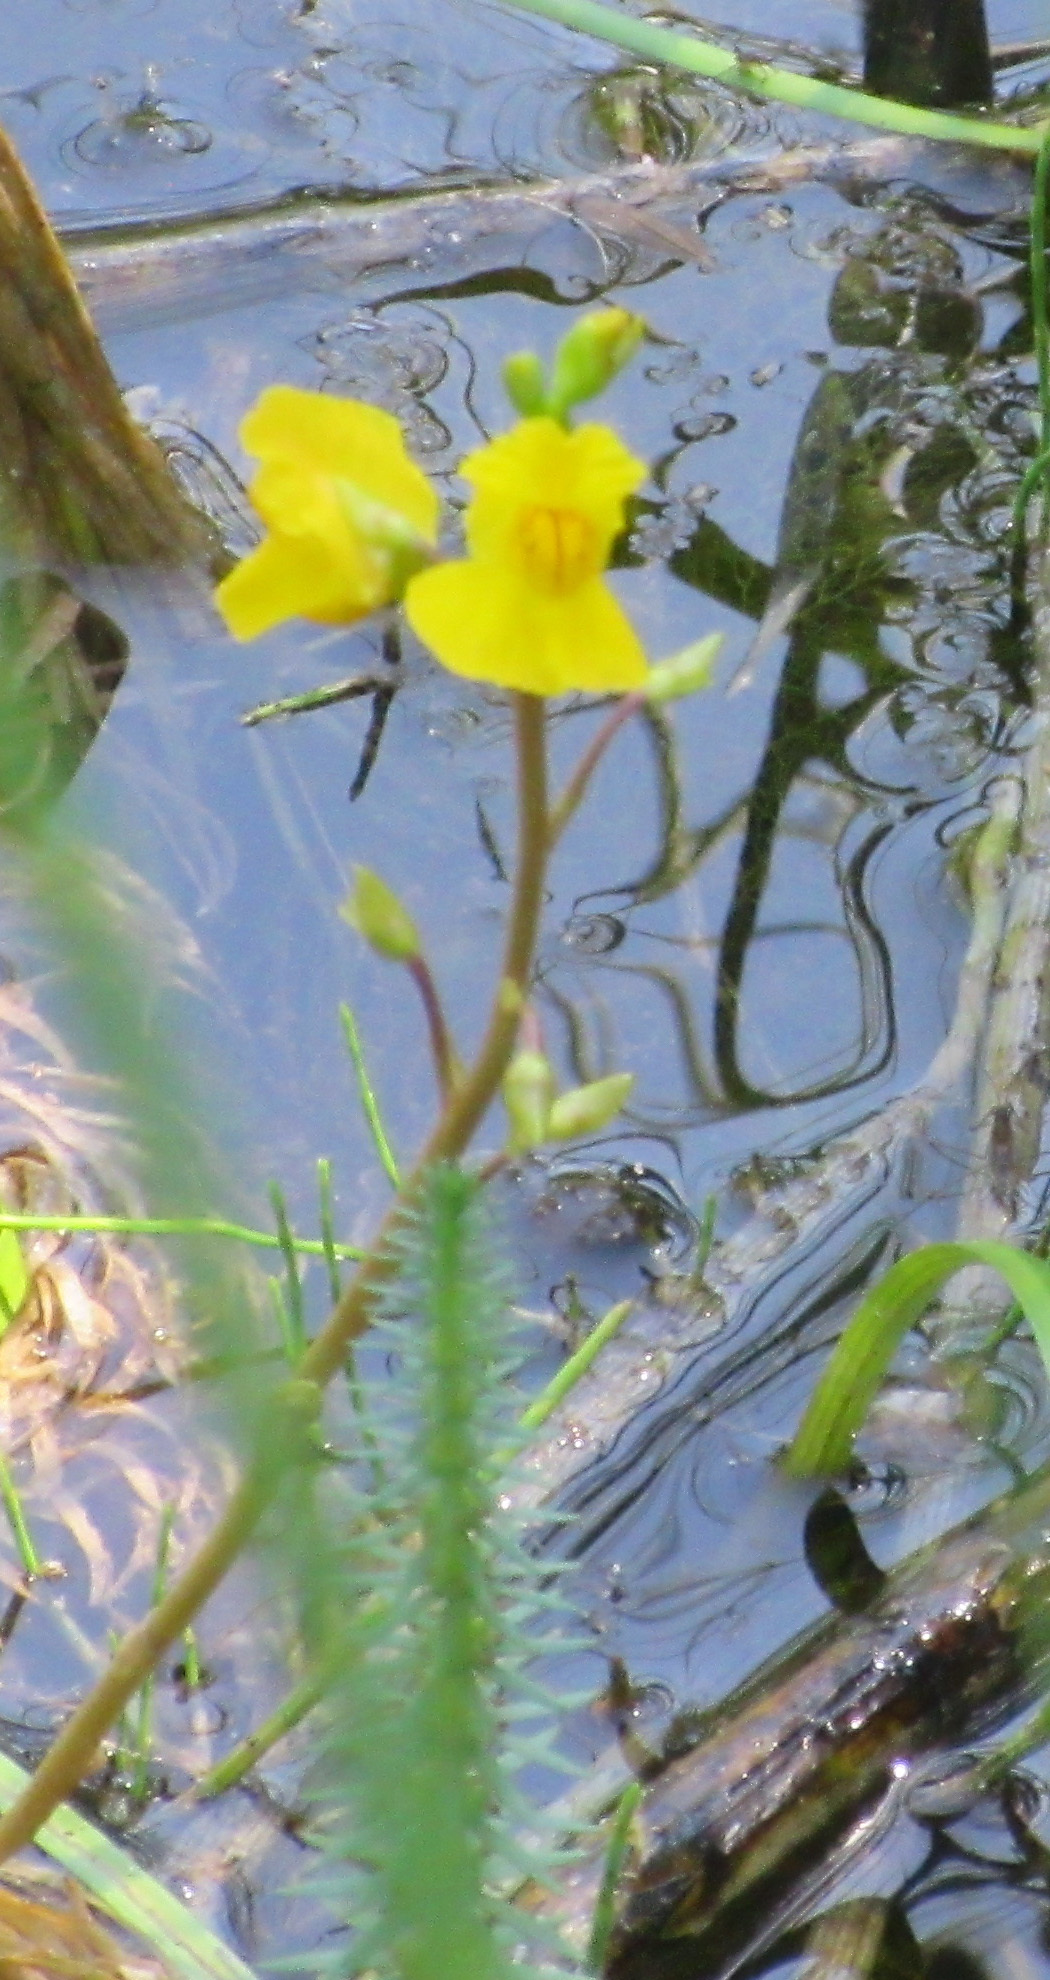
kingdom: Plantae
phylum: Tracheophyta
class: Magnoliopsida
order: Lamiales
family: Lentibulariaceae
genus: Utricularia
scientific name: Utricularia macrorhiza
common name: Common bladderwort
